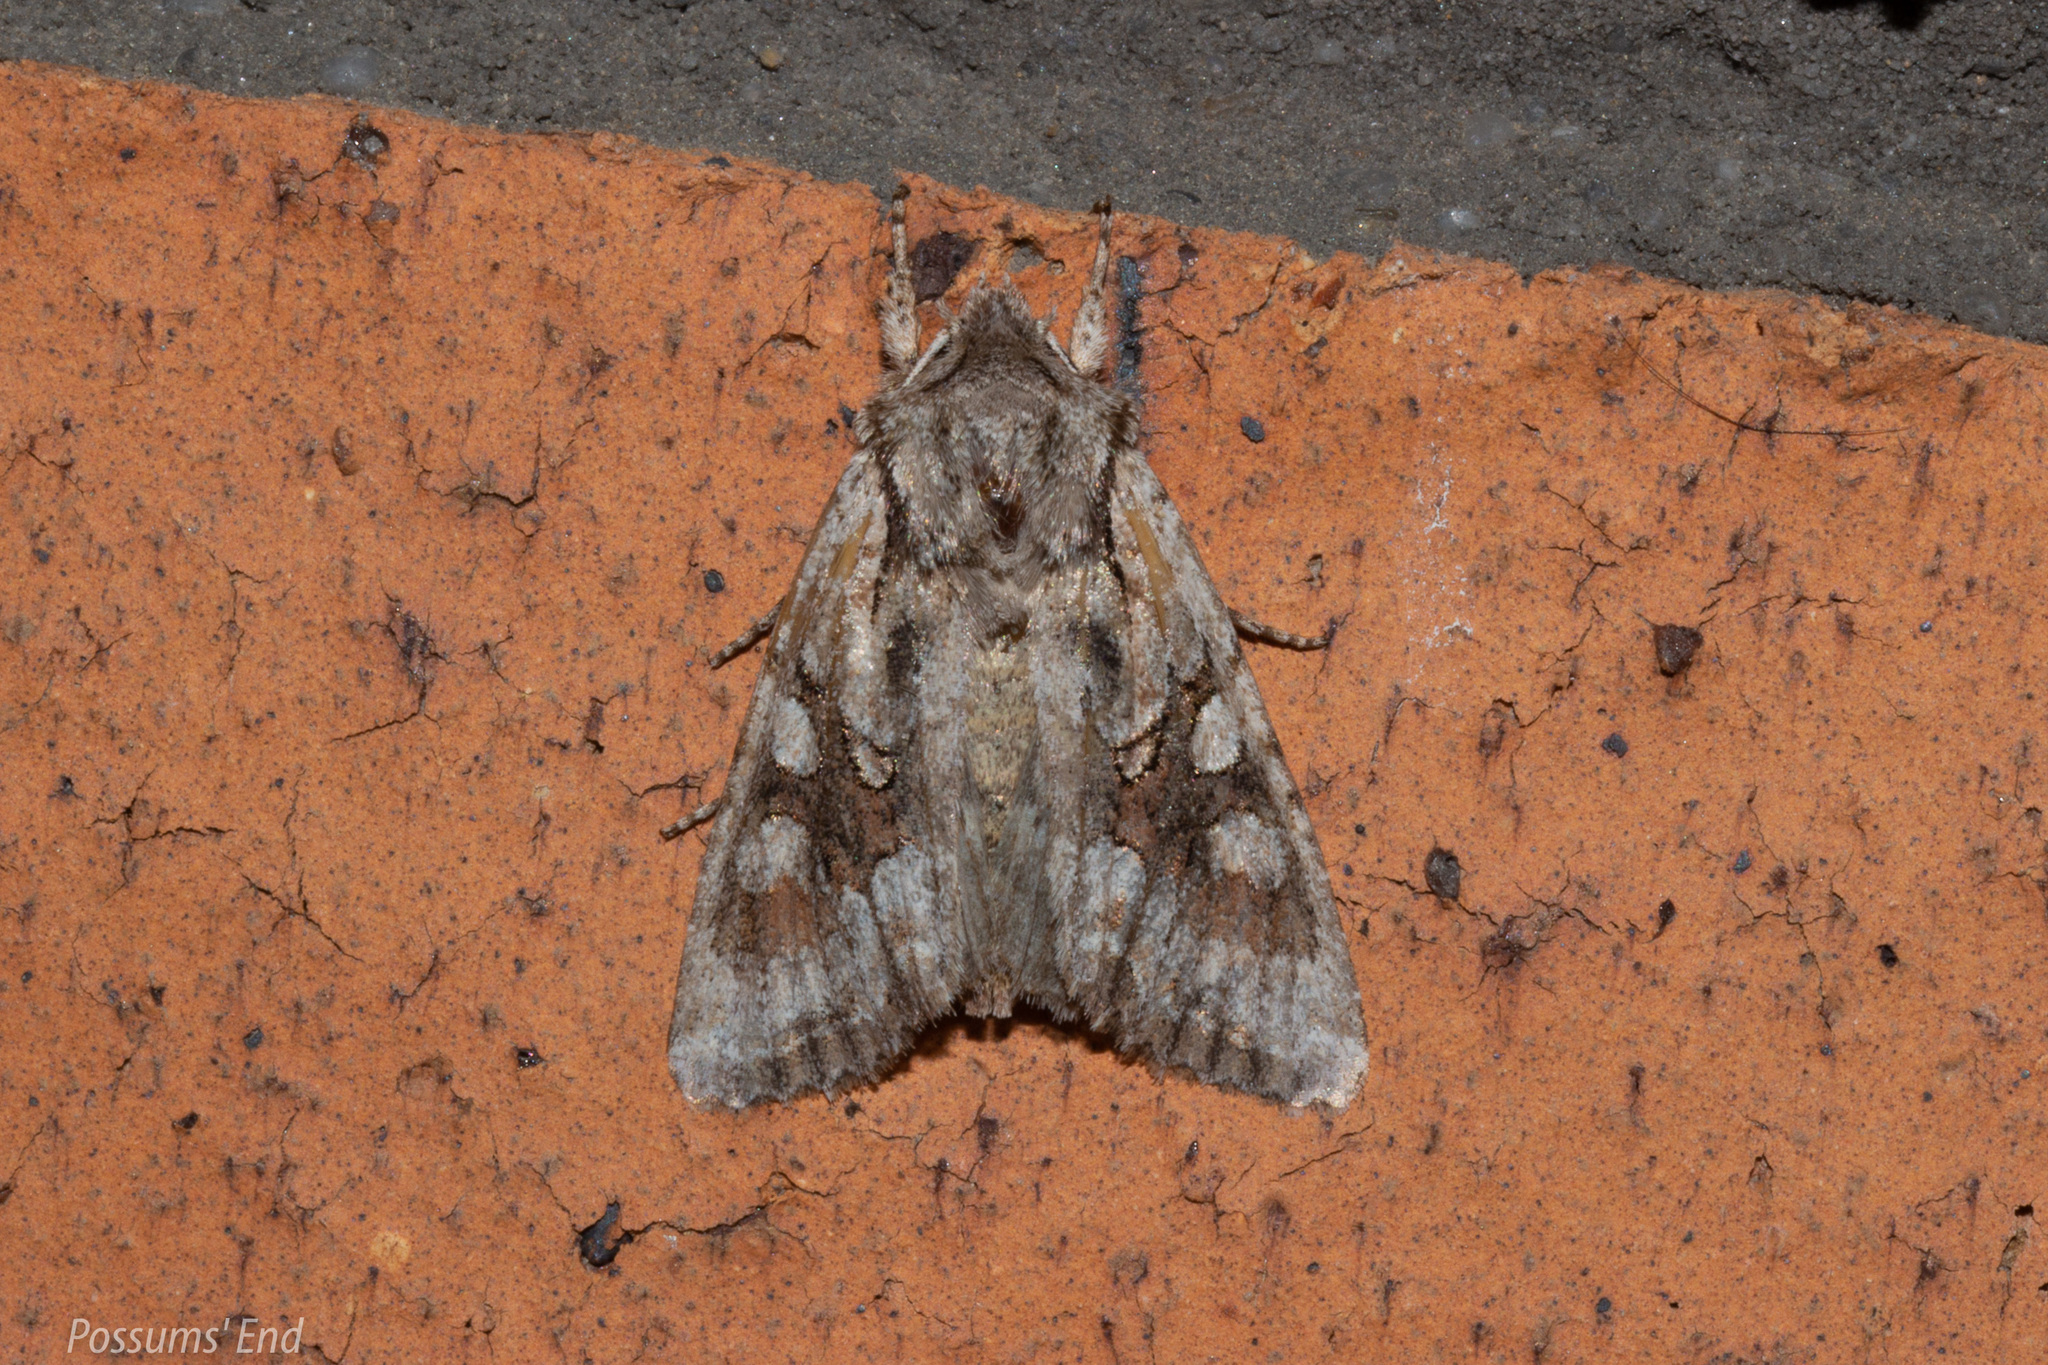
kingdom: Animalia
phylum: Arthropoda
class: Insecta
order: Lepidoptera
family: Noctuidae
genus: Ichneutica
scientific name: Ichneutica mutans
